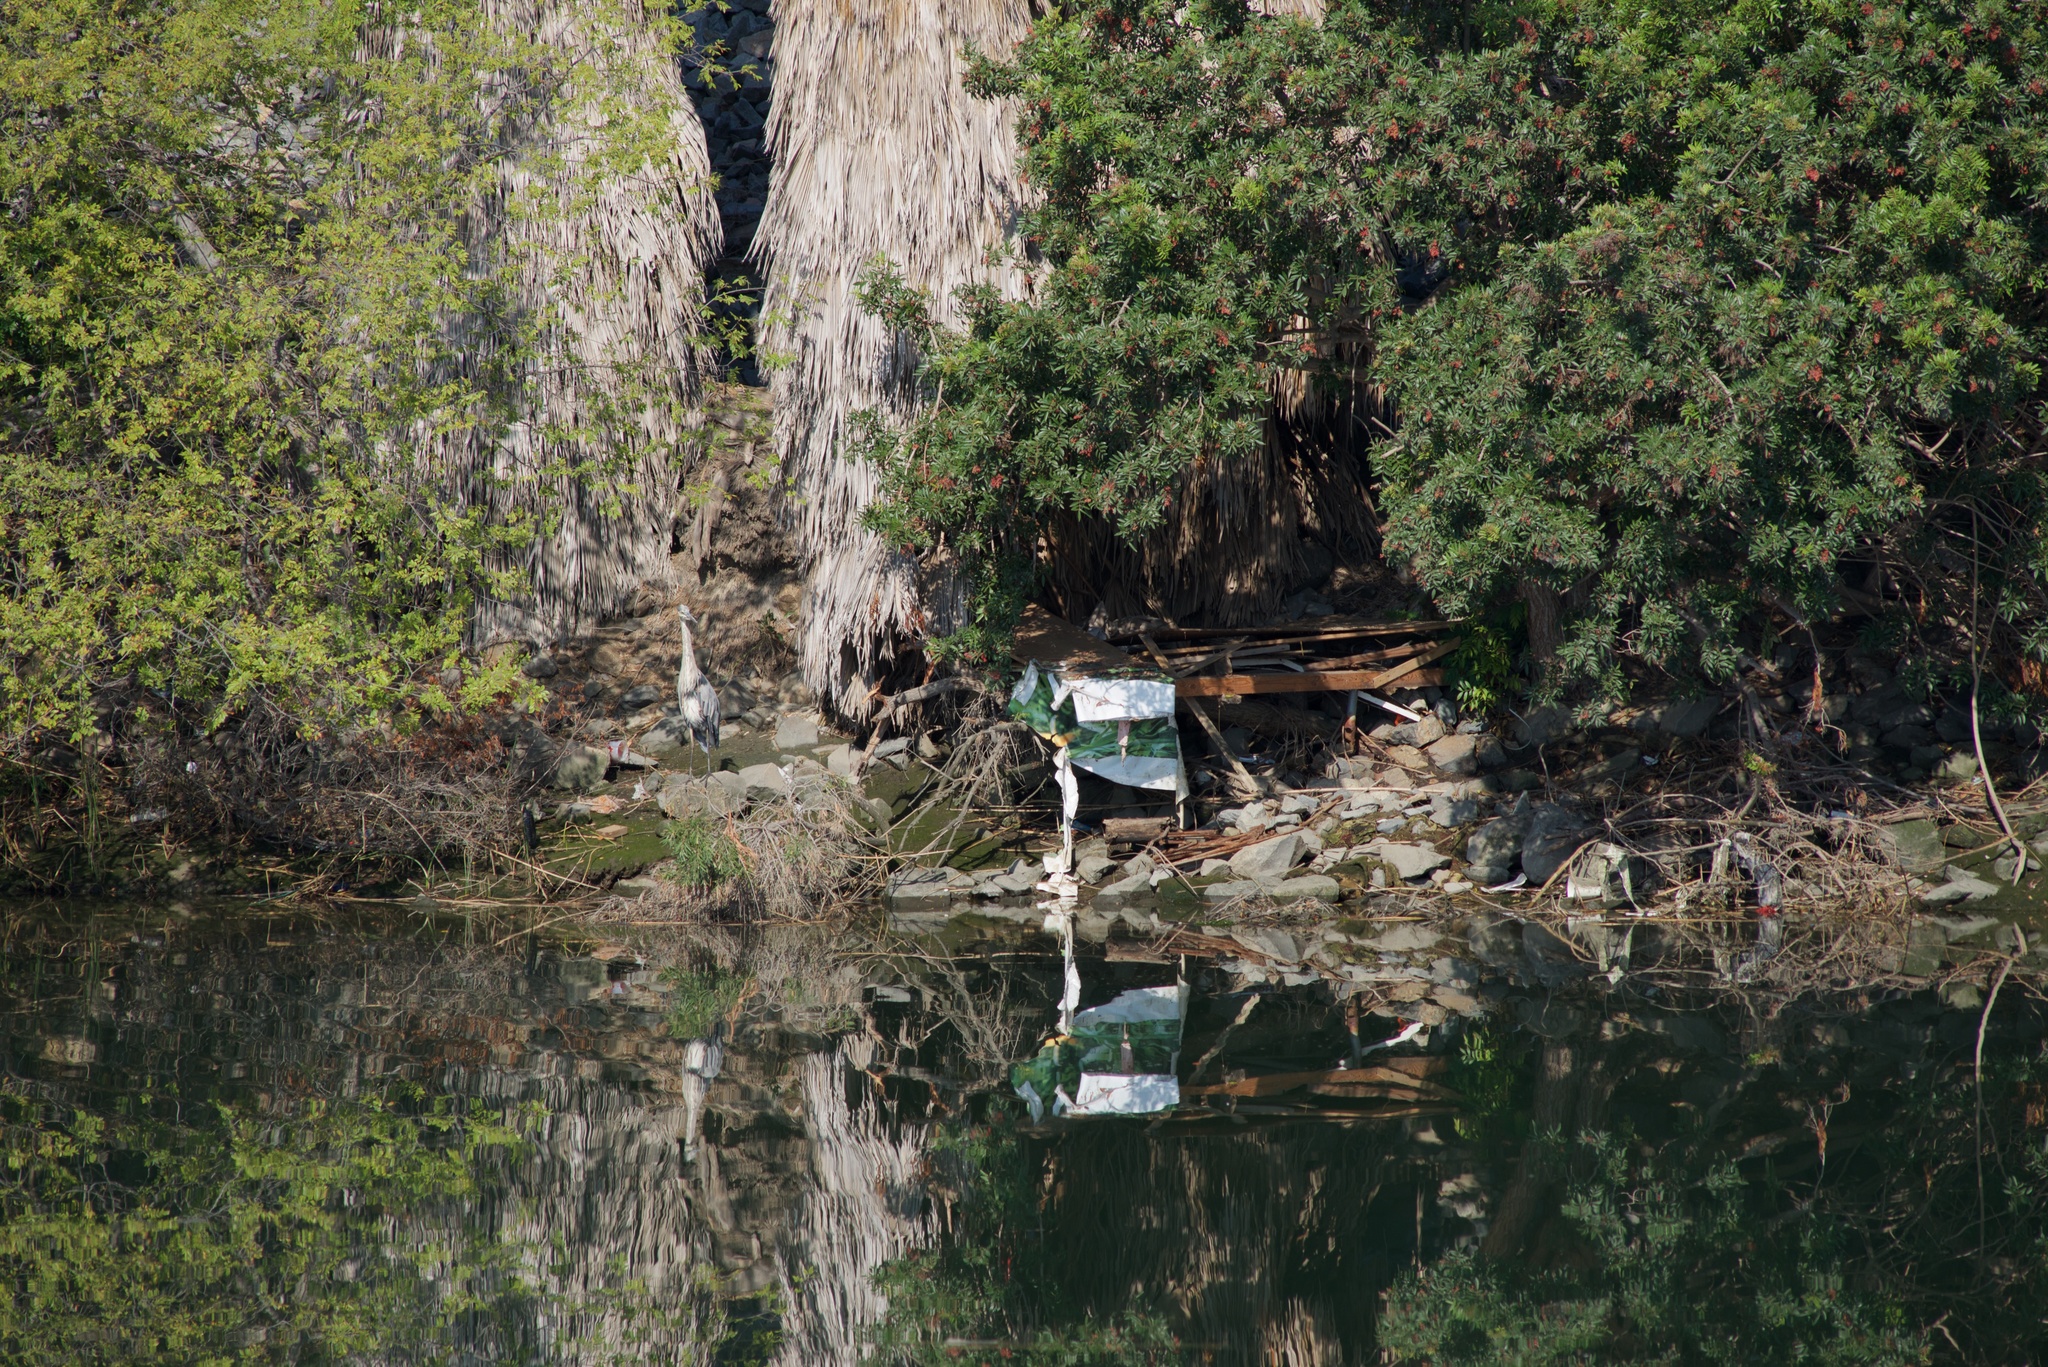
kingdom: Animalia
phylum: Chordata
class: Aves
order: Pelecaniformes
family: Ardeidae
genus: Ardea
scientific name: Ardea herodias
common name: Great blue heron
